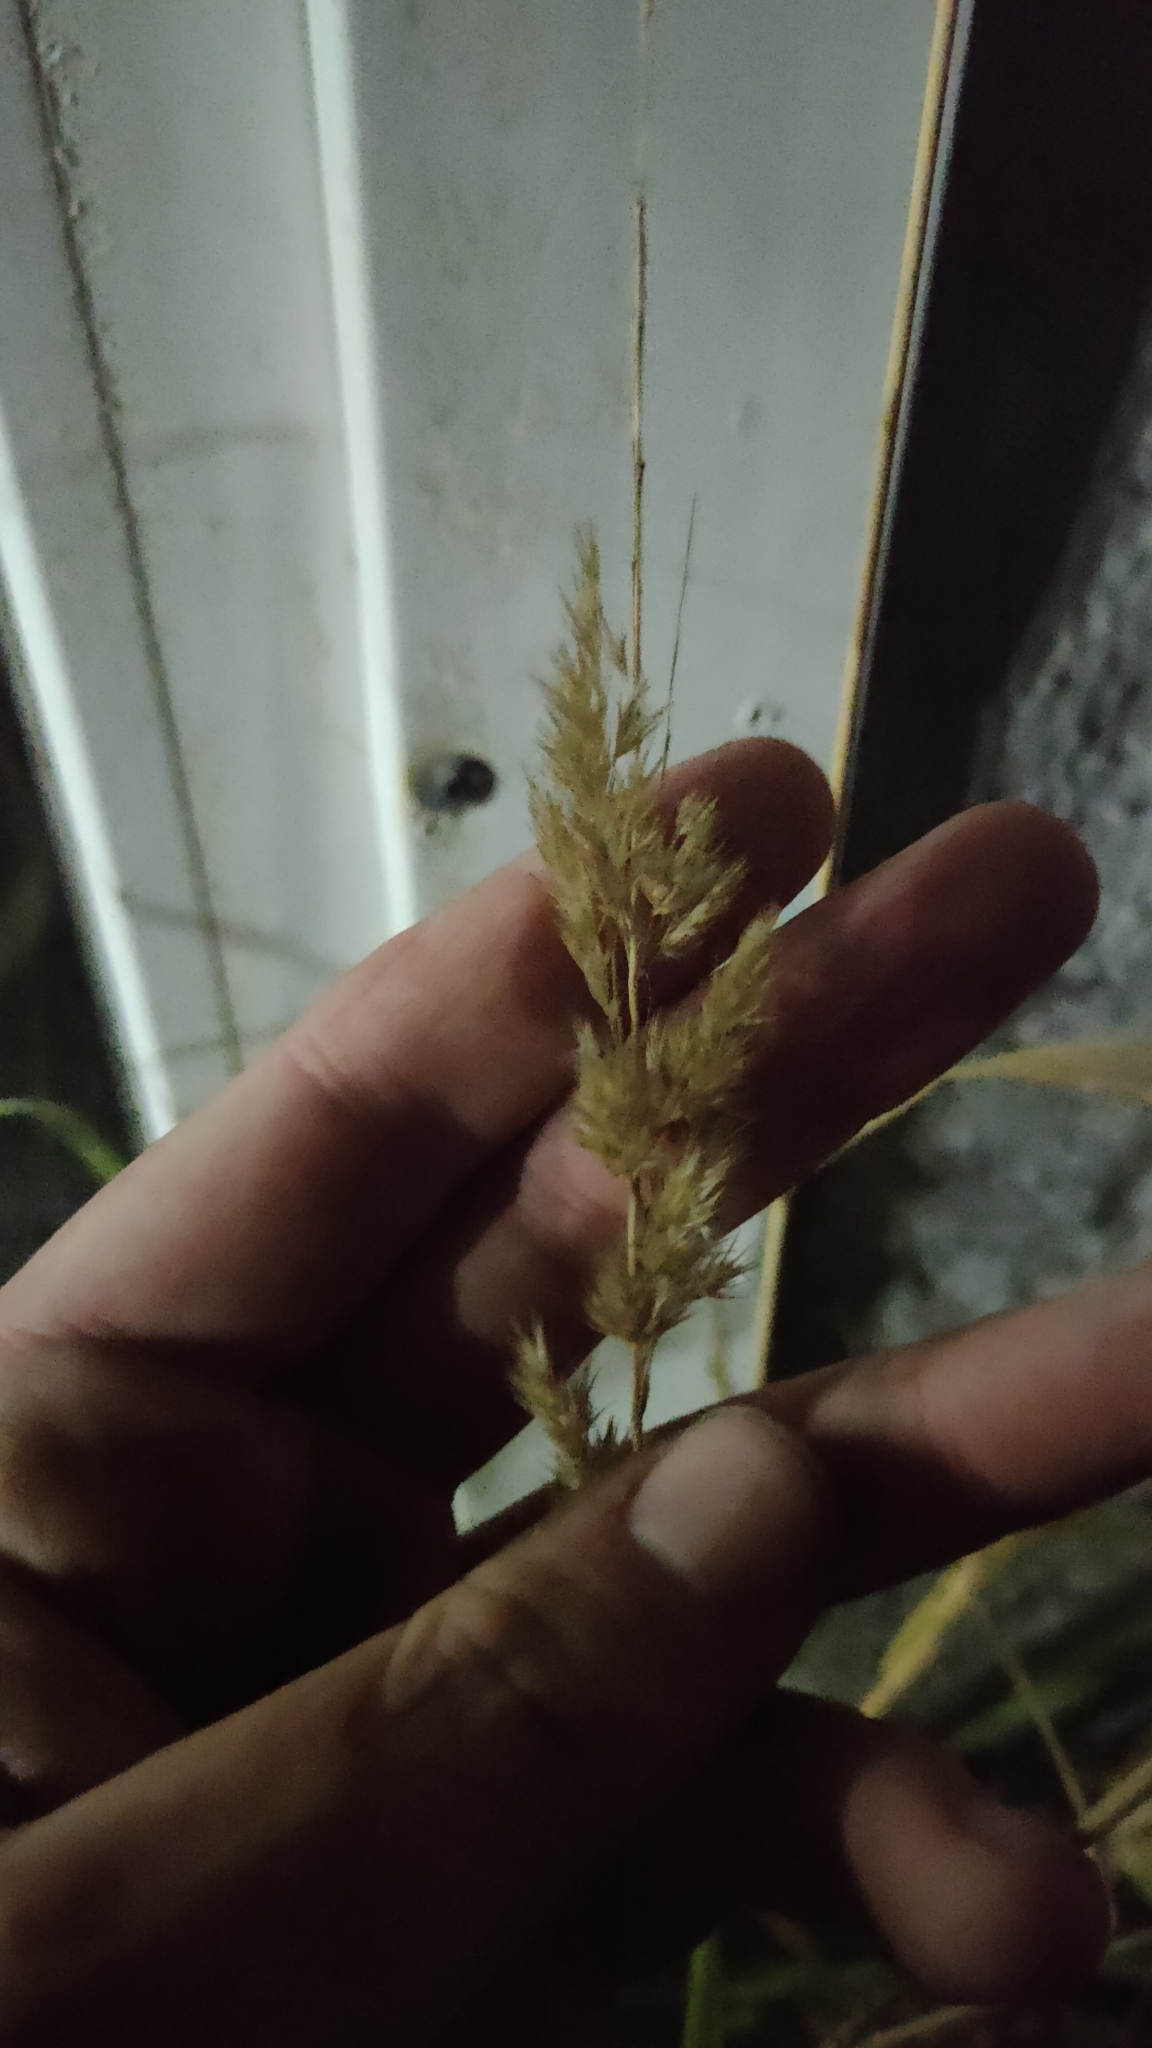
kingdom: Plantae
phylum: Tracheophyta
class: Liliopsida
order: Poales
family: Poaceae
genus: Calamagrostis
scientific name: Calamagrostis epigejos
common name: Wood small-reed
